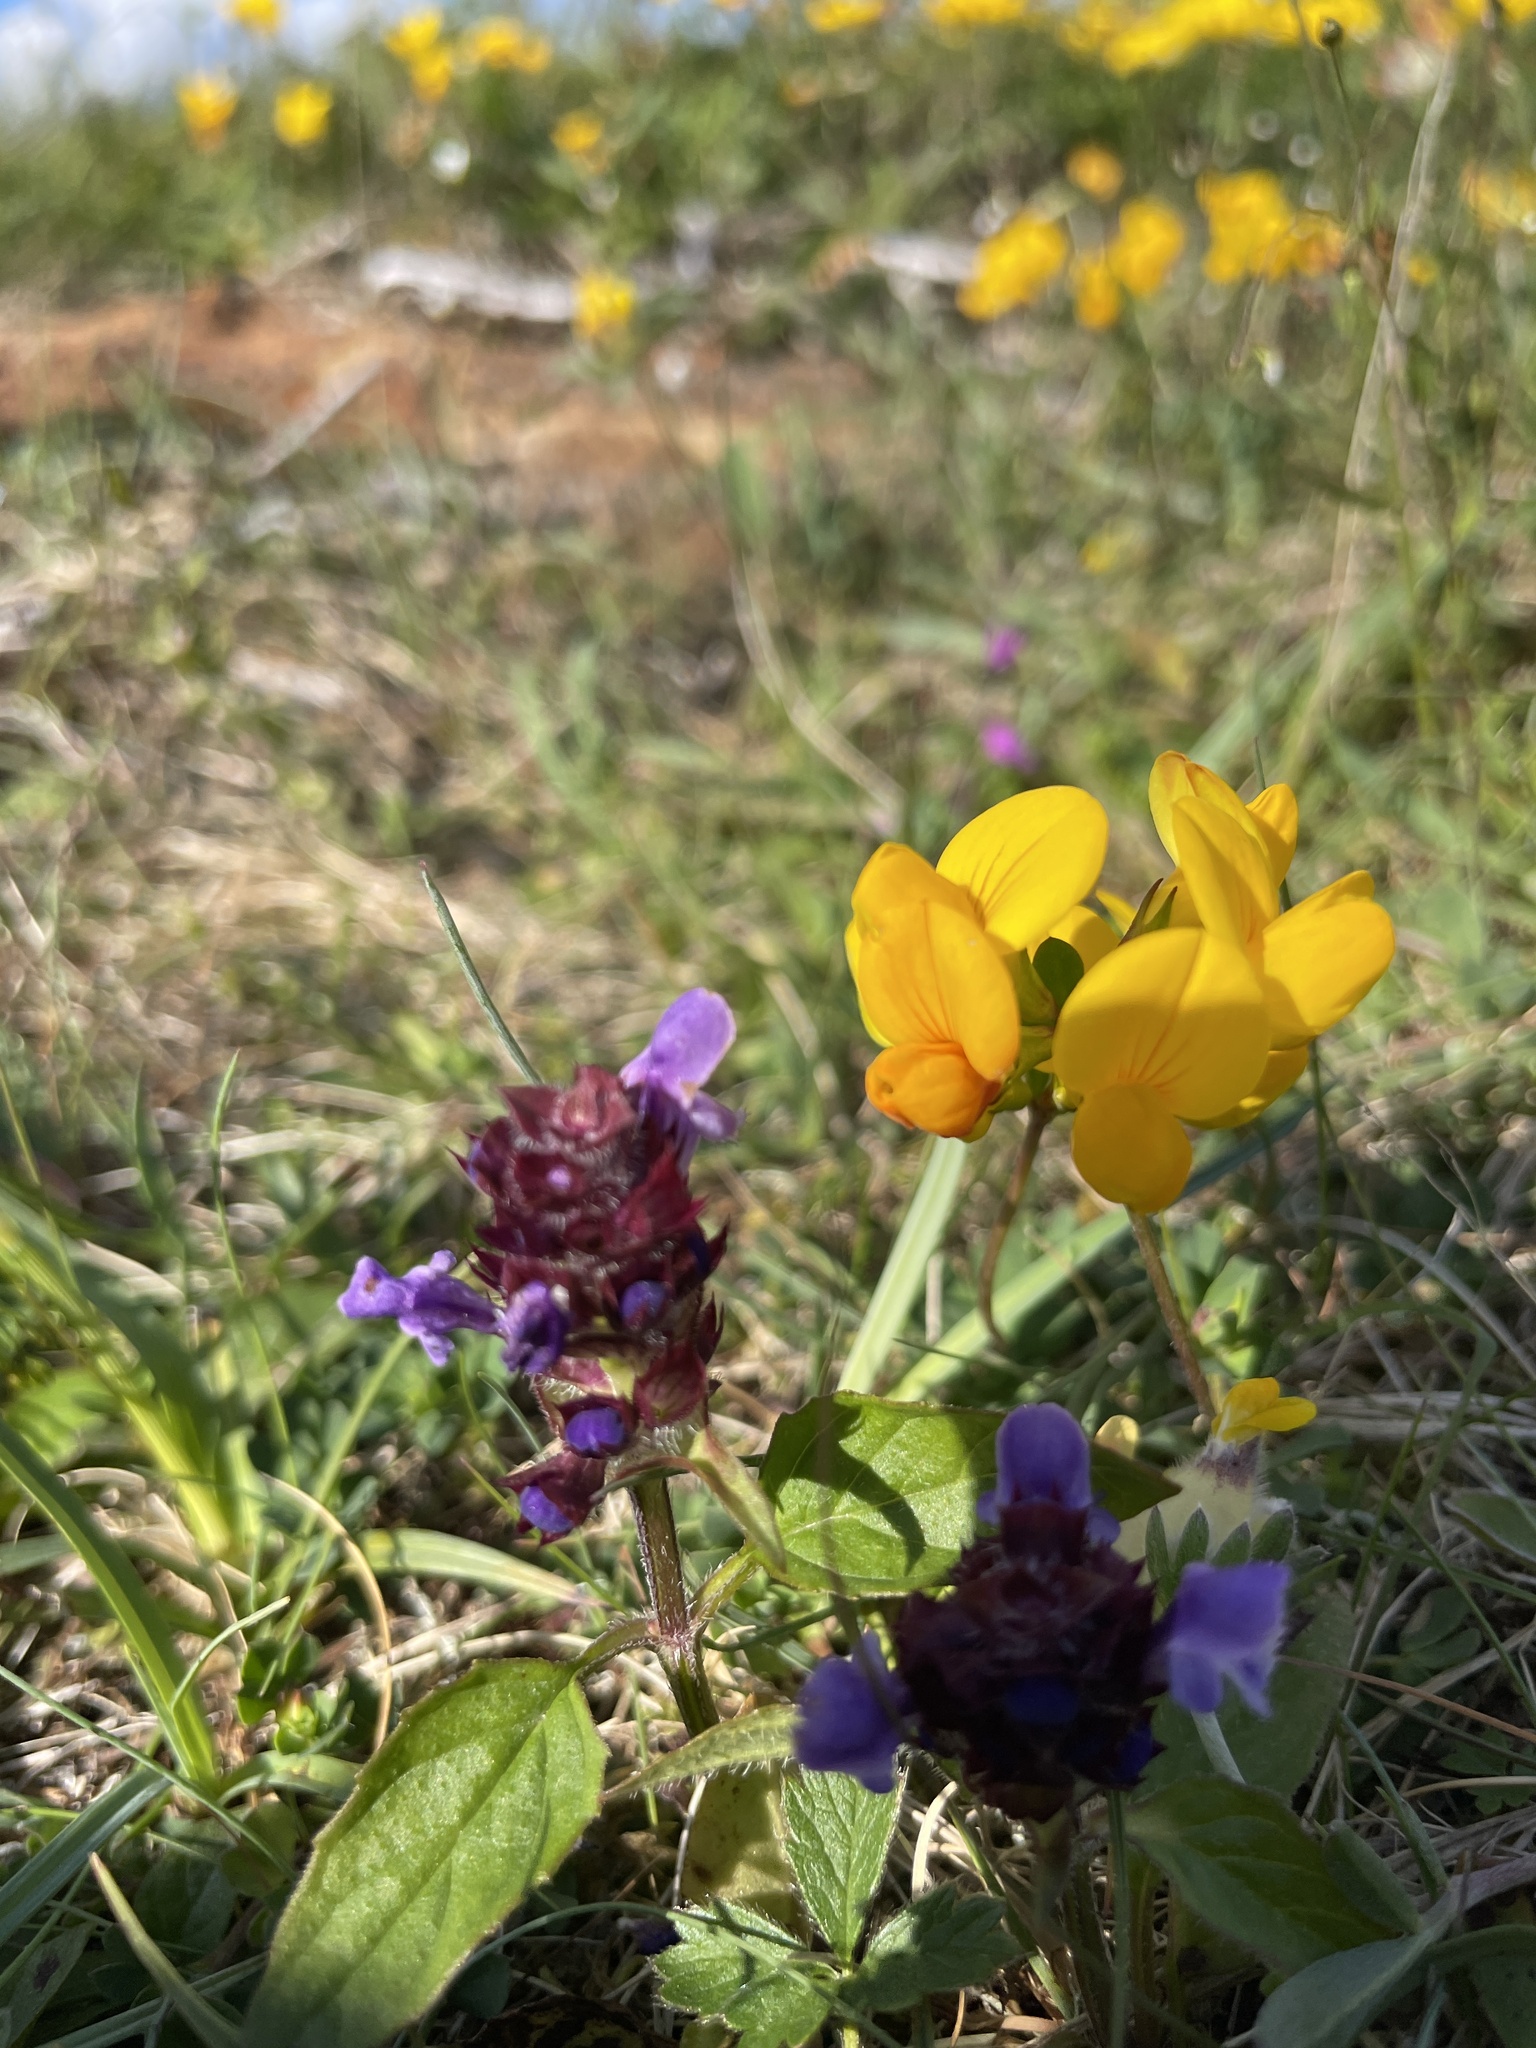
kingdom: Plantae
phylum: Tracheophyta
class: Magnoliopsida
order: Lamiales
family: Lamiaceae
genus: Prunella
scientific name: Prunella vulgaris
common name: Heal-all
